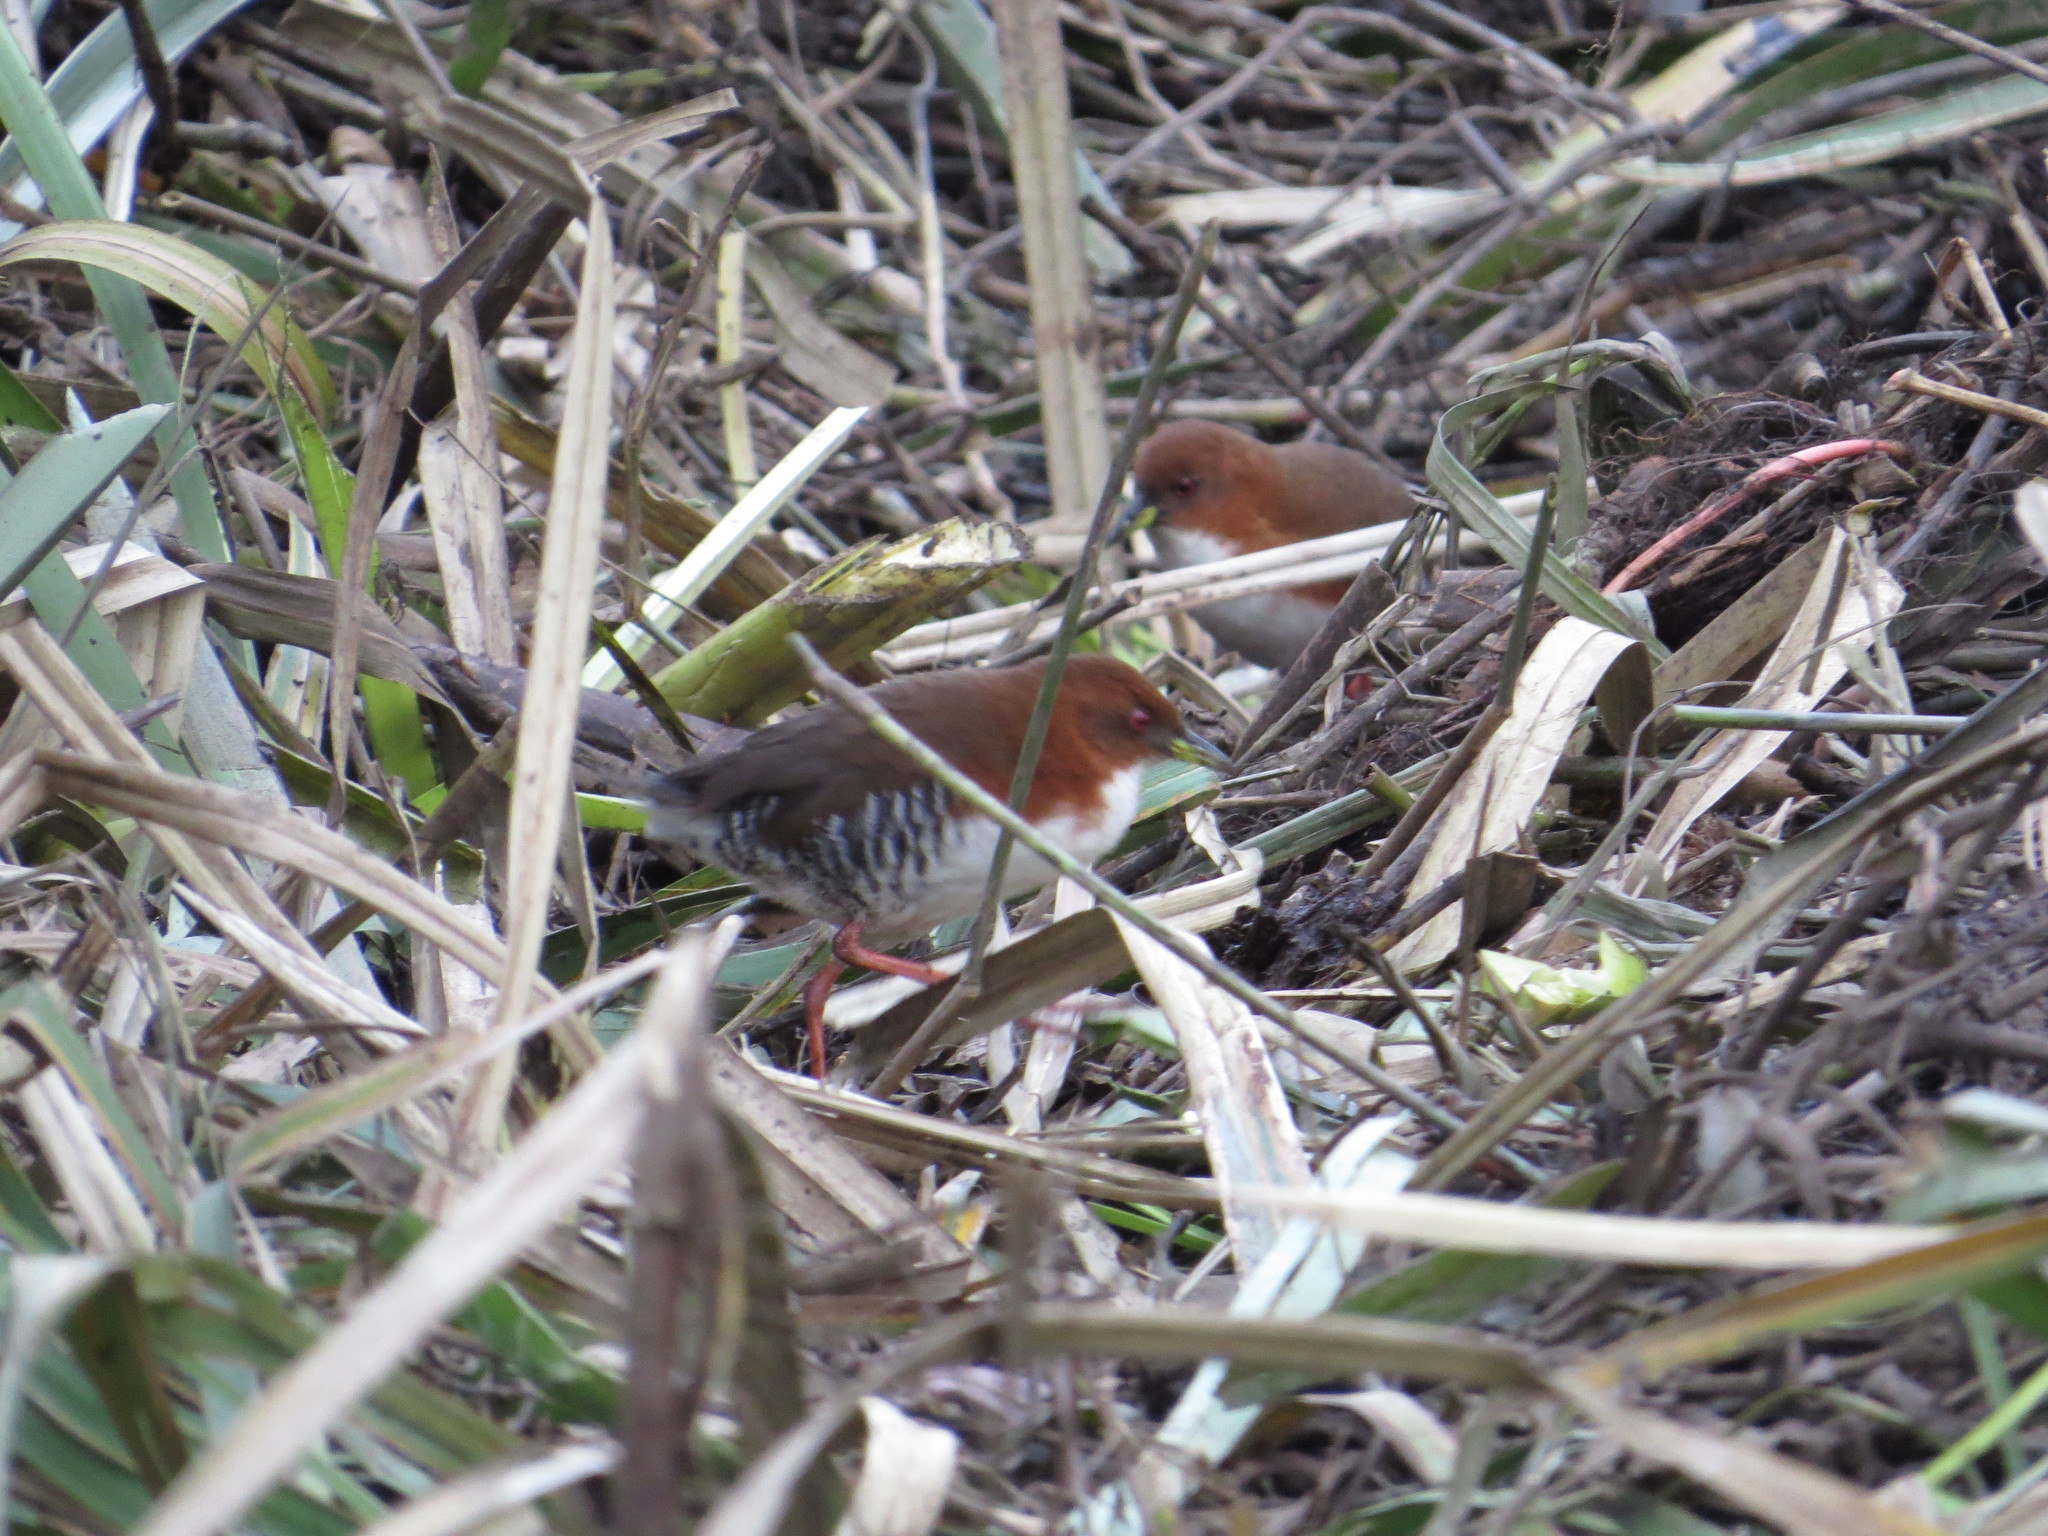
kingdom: Animalia
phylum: Chordata
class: Aves
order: Gruiformes
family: Rallidae
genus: Laterallus
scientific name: Laterallus leucopyrrhus
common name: Red-and-white crake
